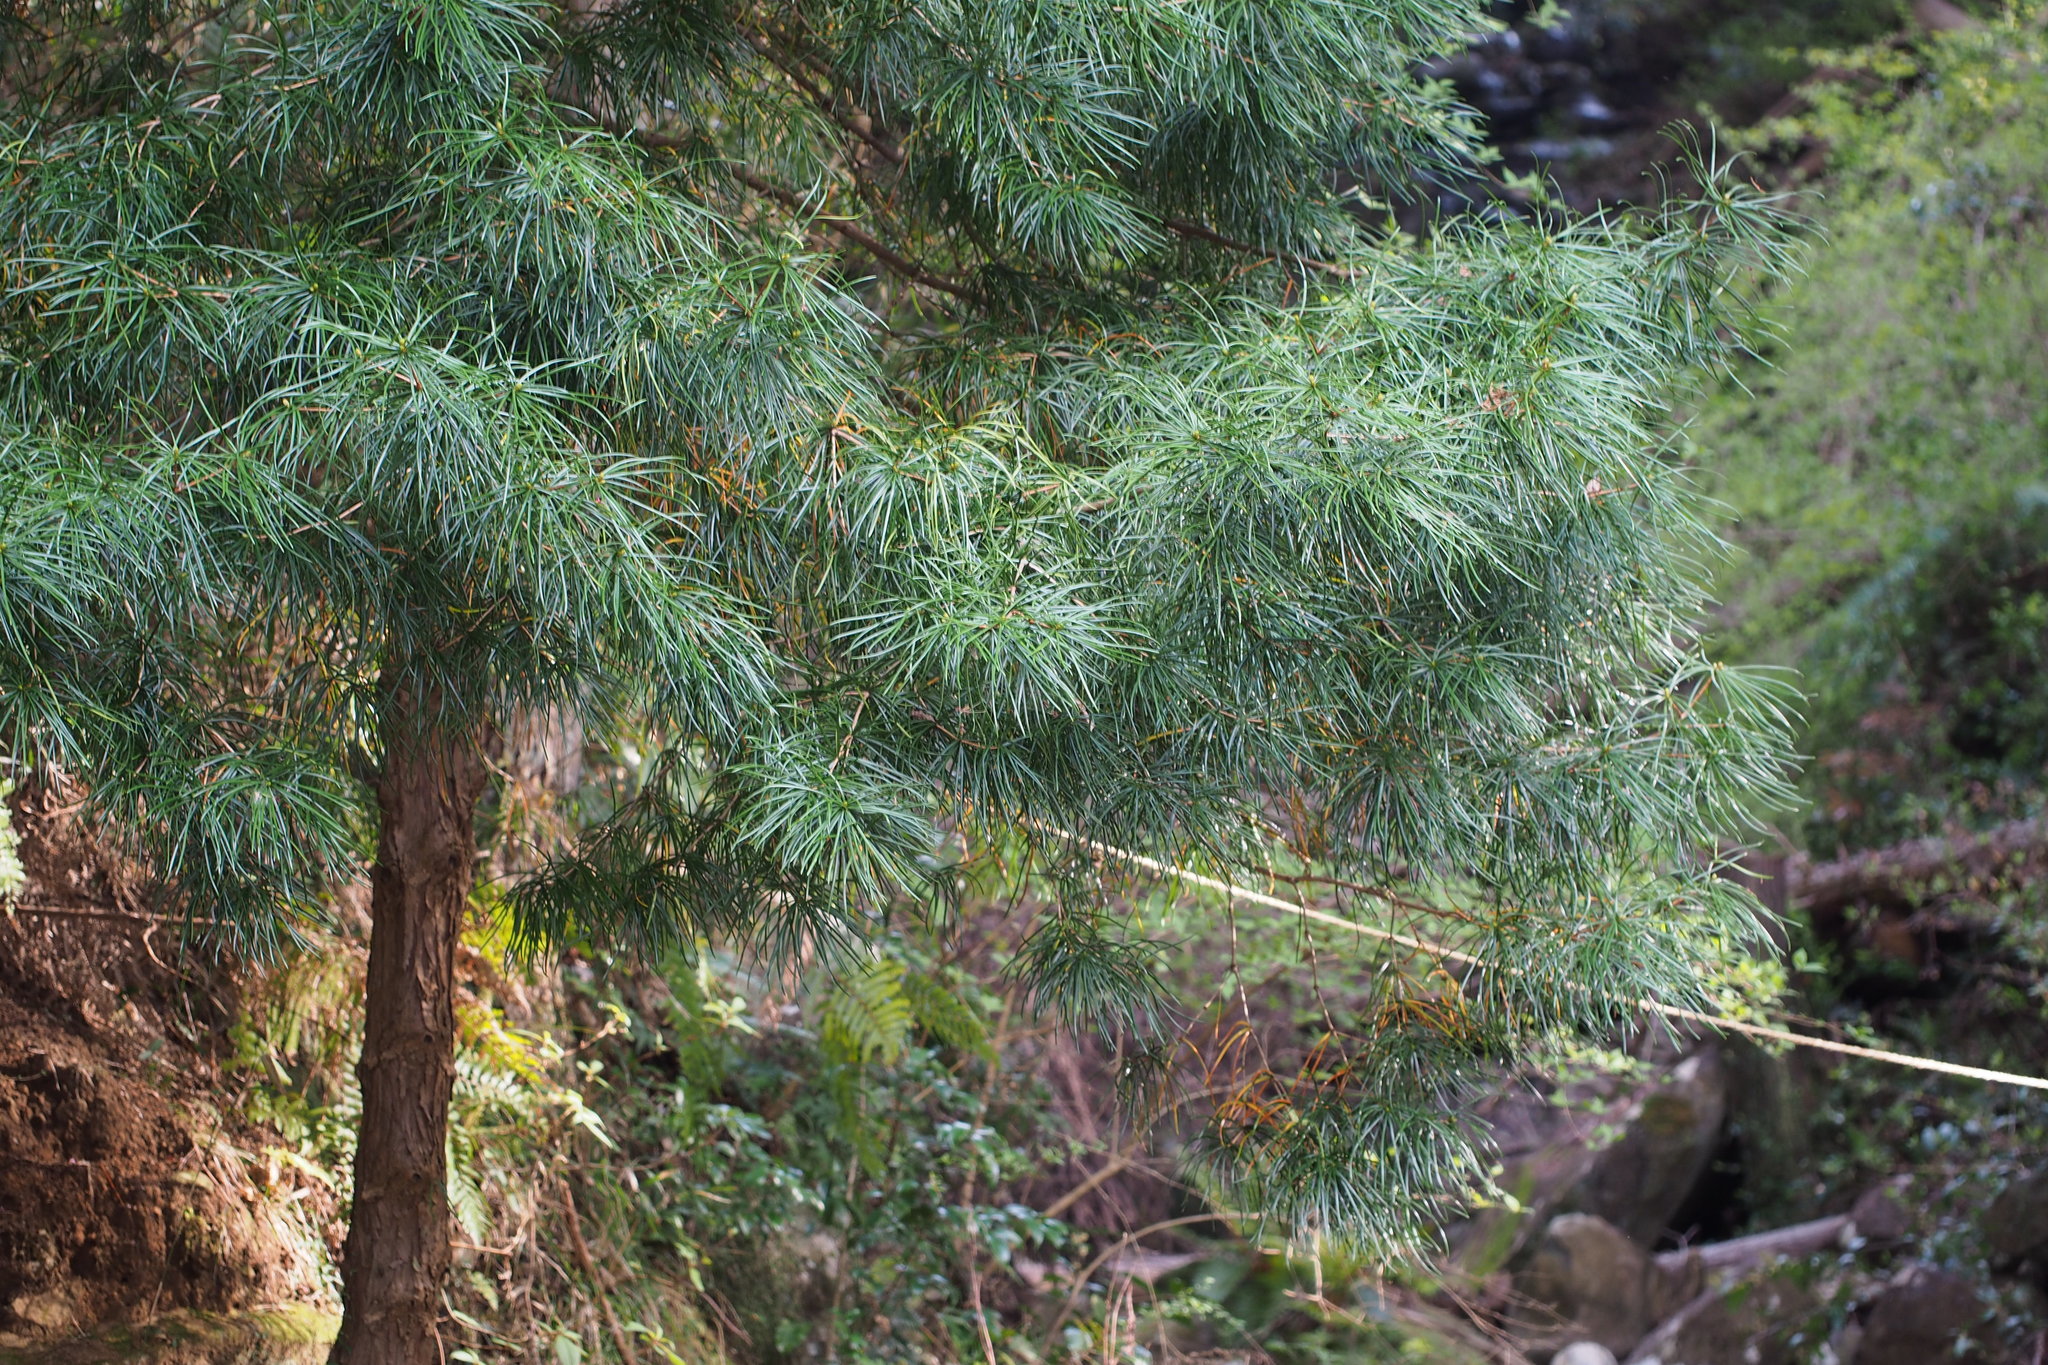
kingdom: Plantae
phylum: Tracheophyta
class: Pinopsida
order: Pinales
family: Sciadopityaceae
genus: Sciadopitys
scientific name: Sciadopitys verticillata
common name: Japanese umbrella pine
